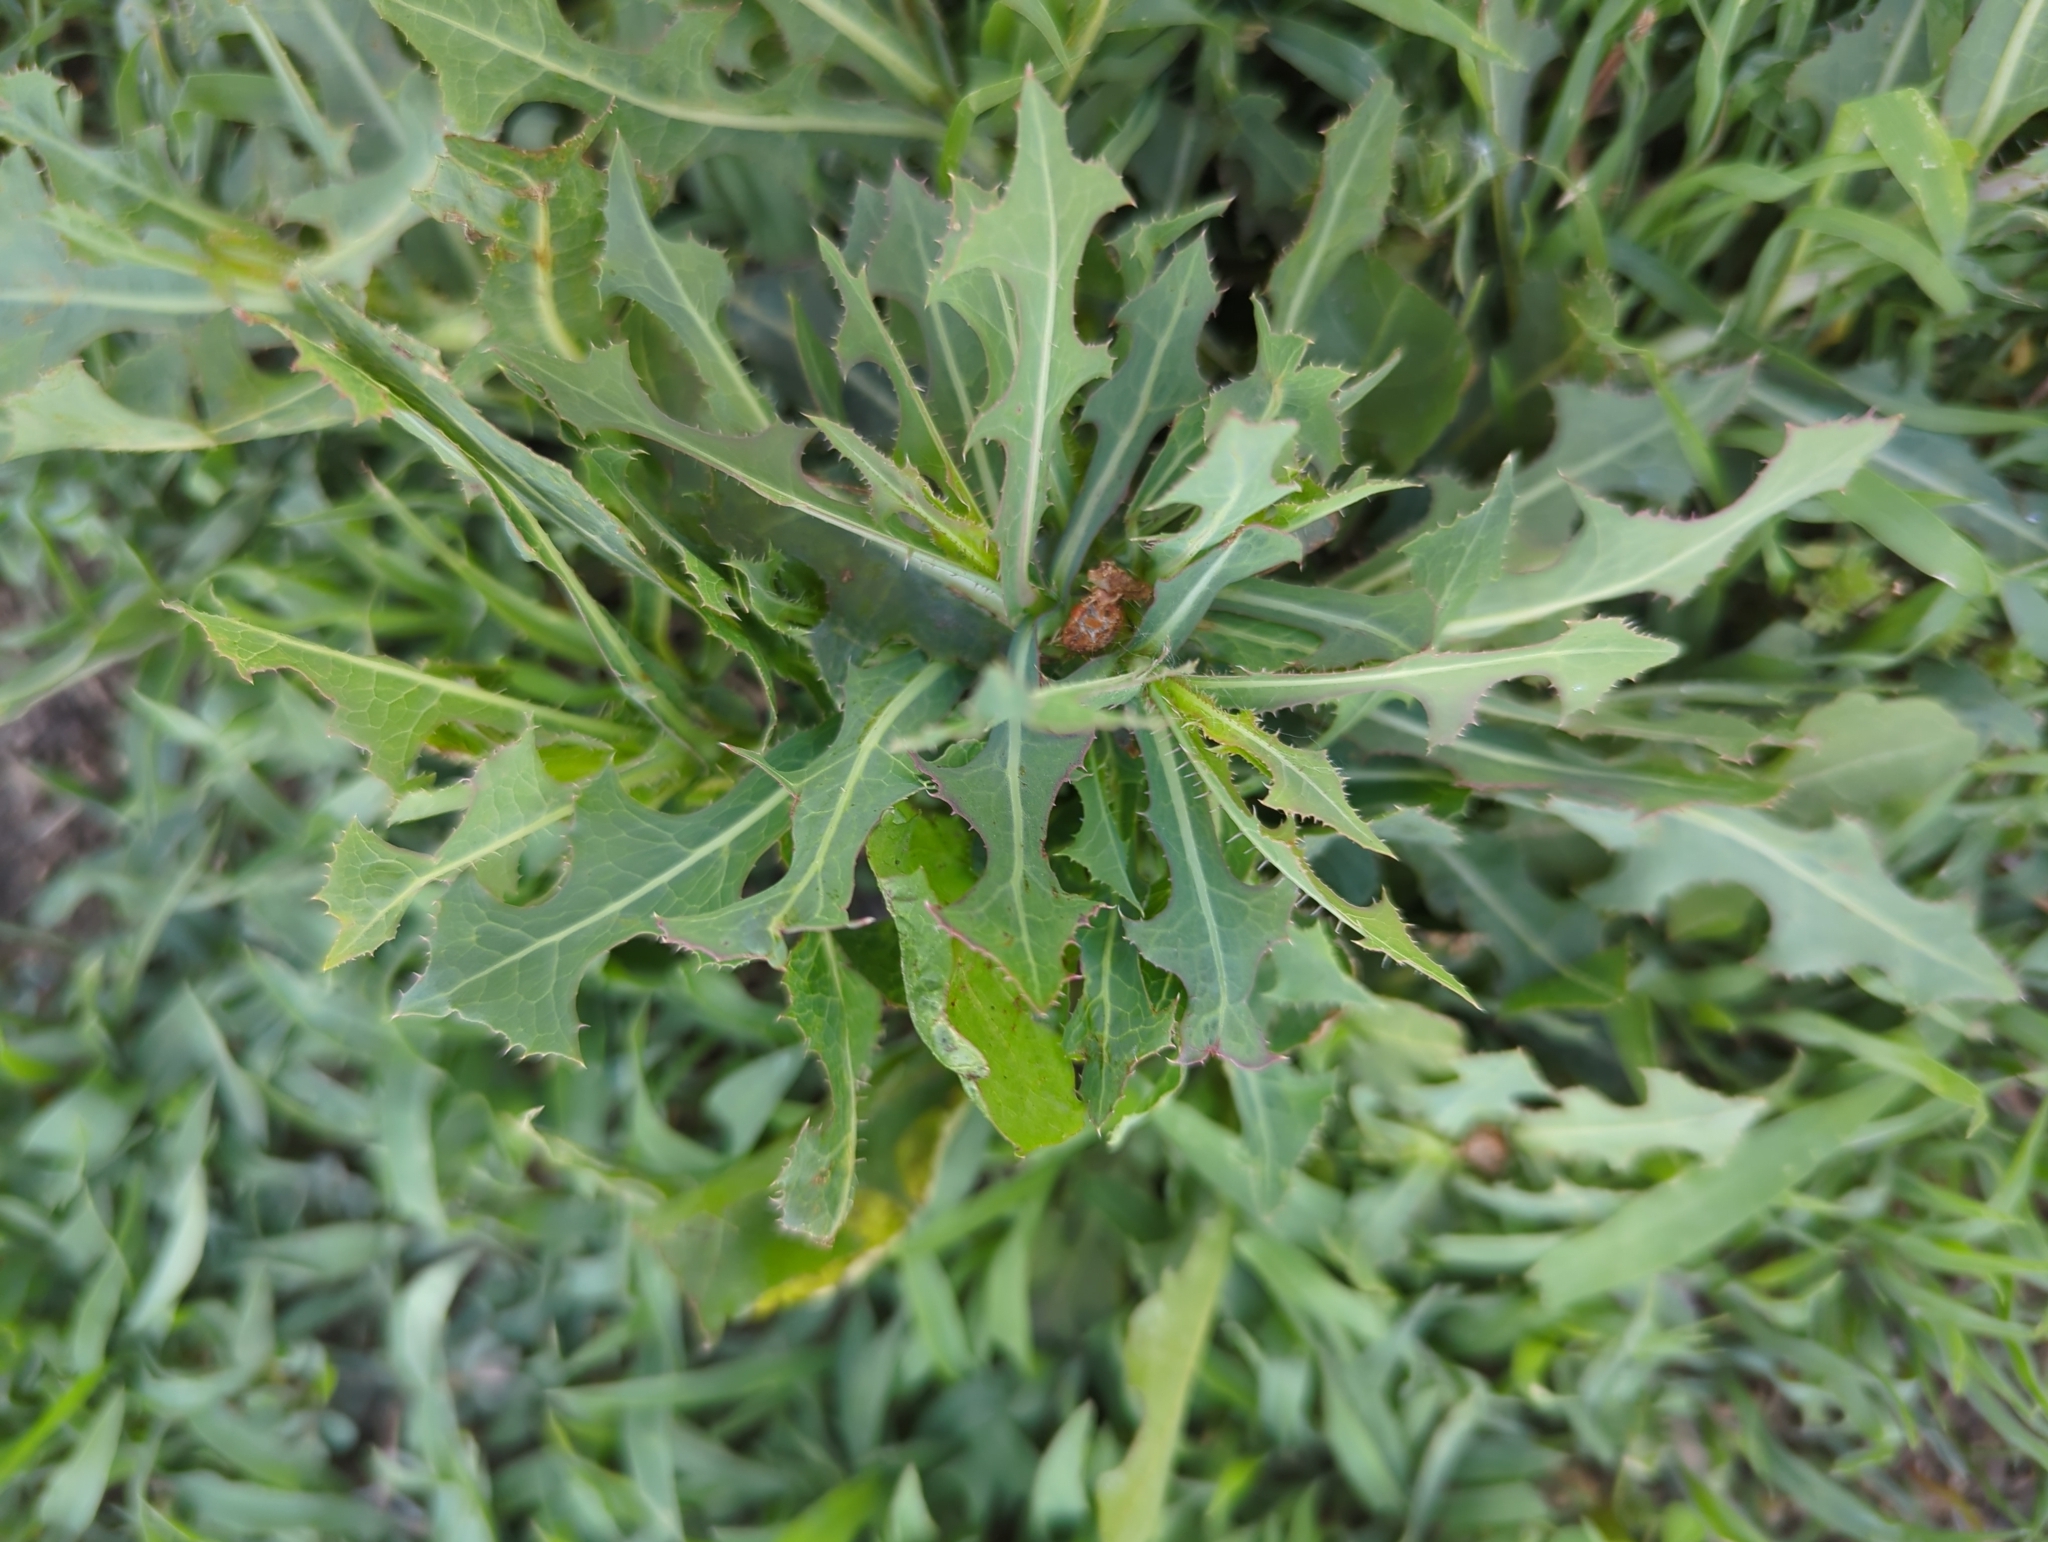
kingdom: Plantae
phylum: Tracheophyta
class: Magnoliopsida
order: Asterales
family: Asteraceae
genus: Lactuca
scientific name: Lactuca serriola
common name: Prickly lettuce
